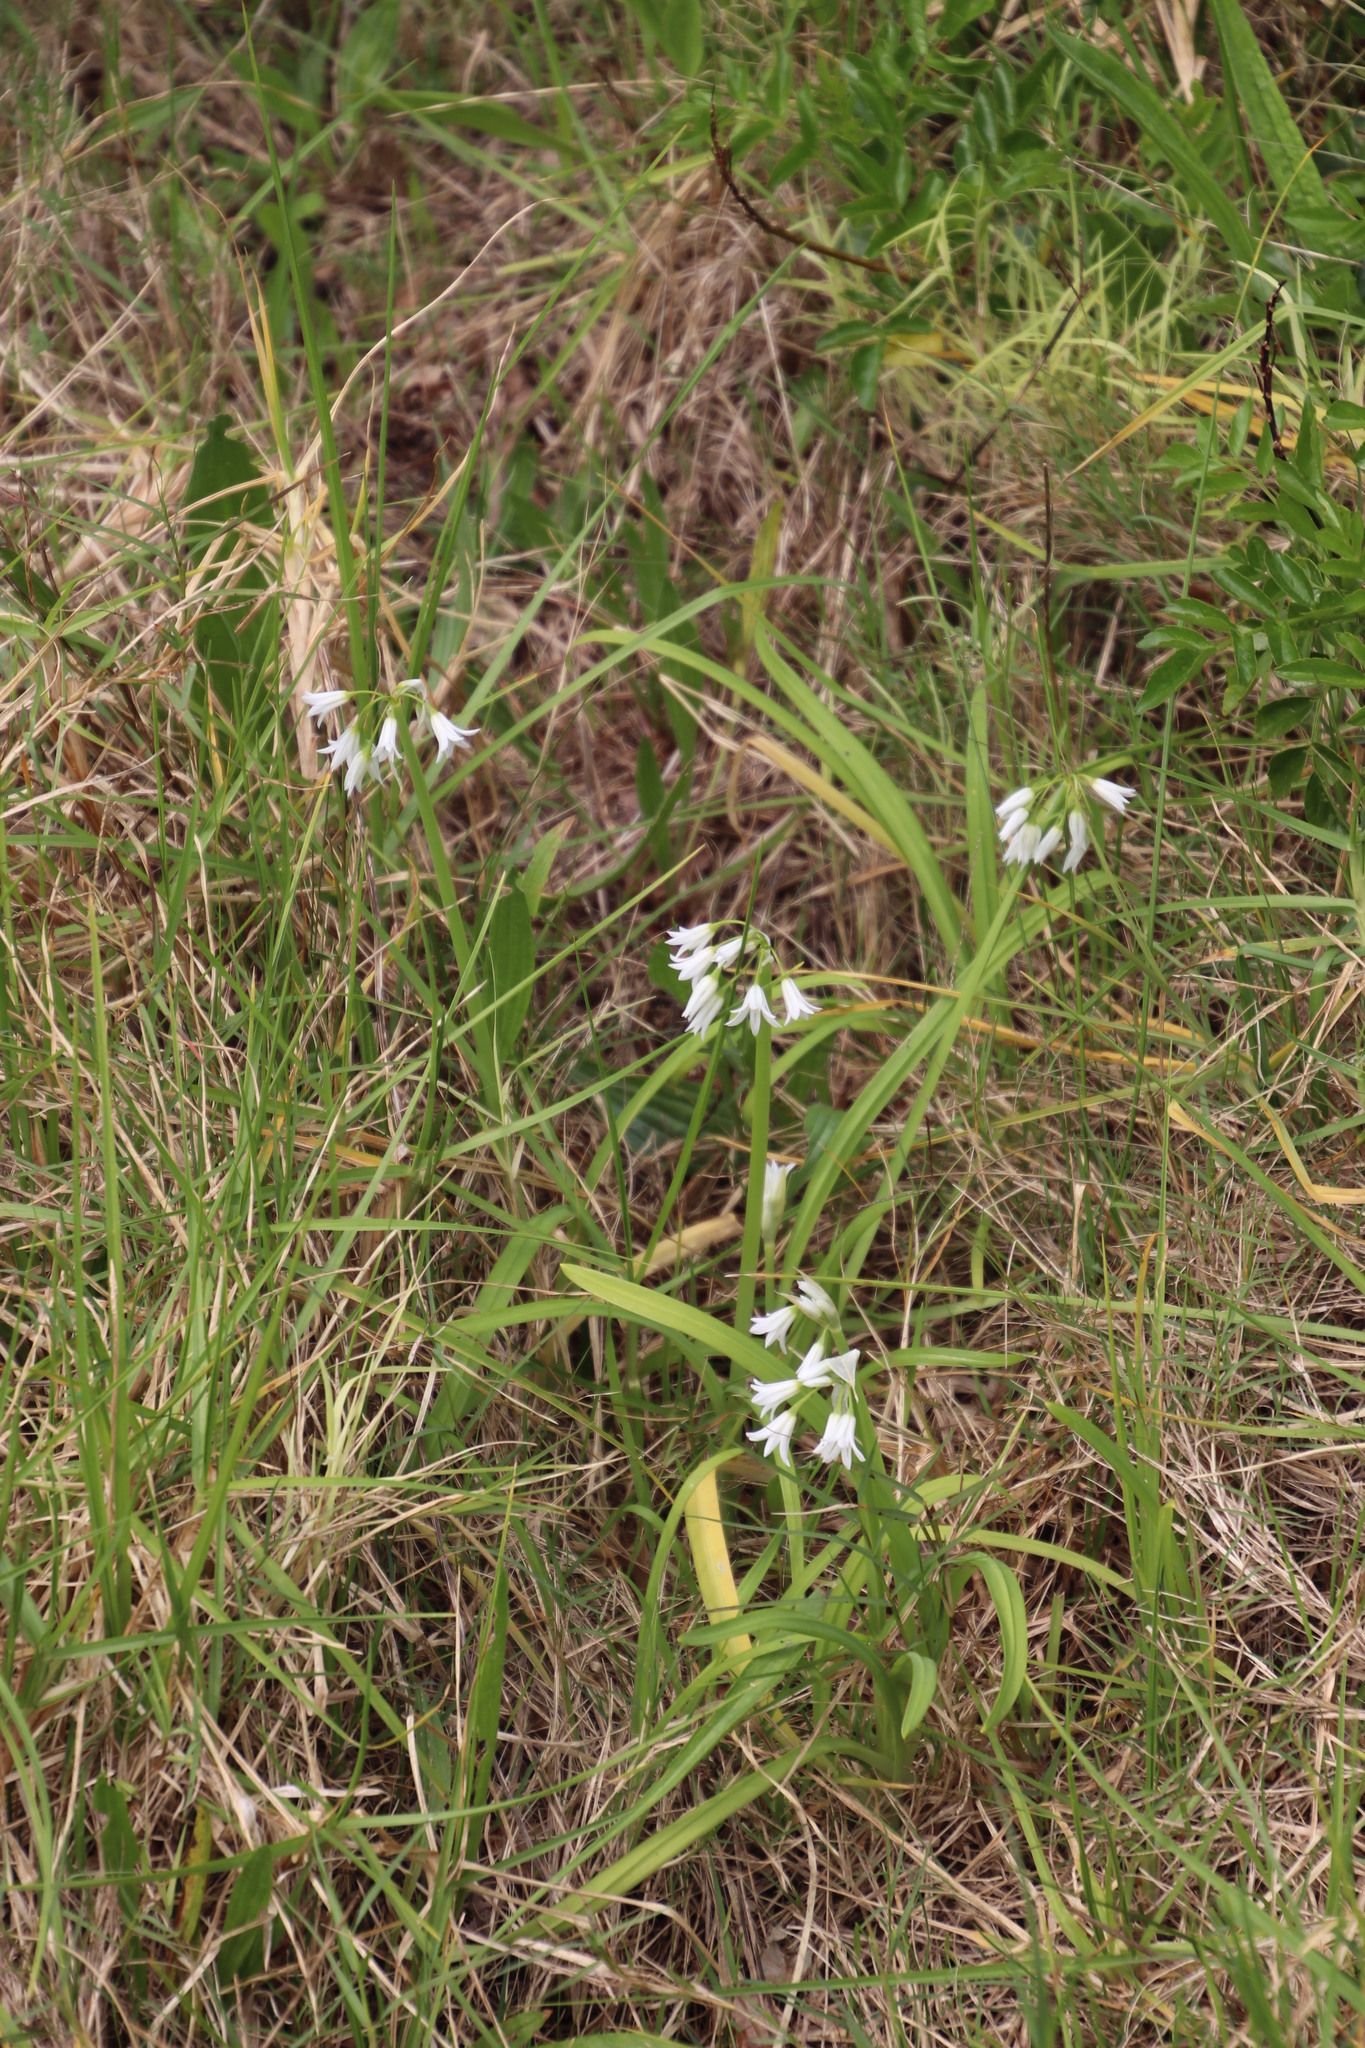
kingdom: Plantae
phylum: Tracheophyta
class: Liliopsida
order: Asparagales
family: Amaryllidaceae
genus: Allium
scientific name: Allium triquetrum
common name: Three-cornered garlic
